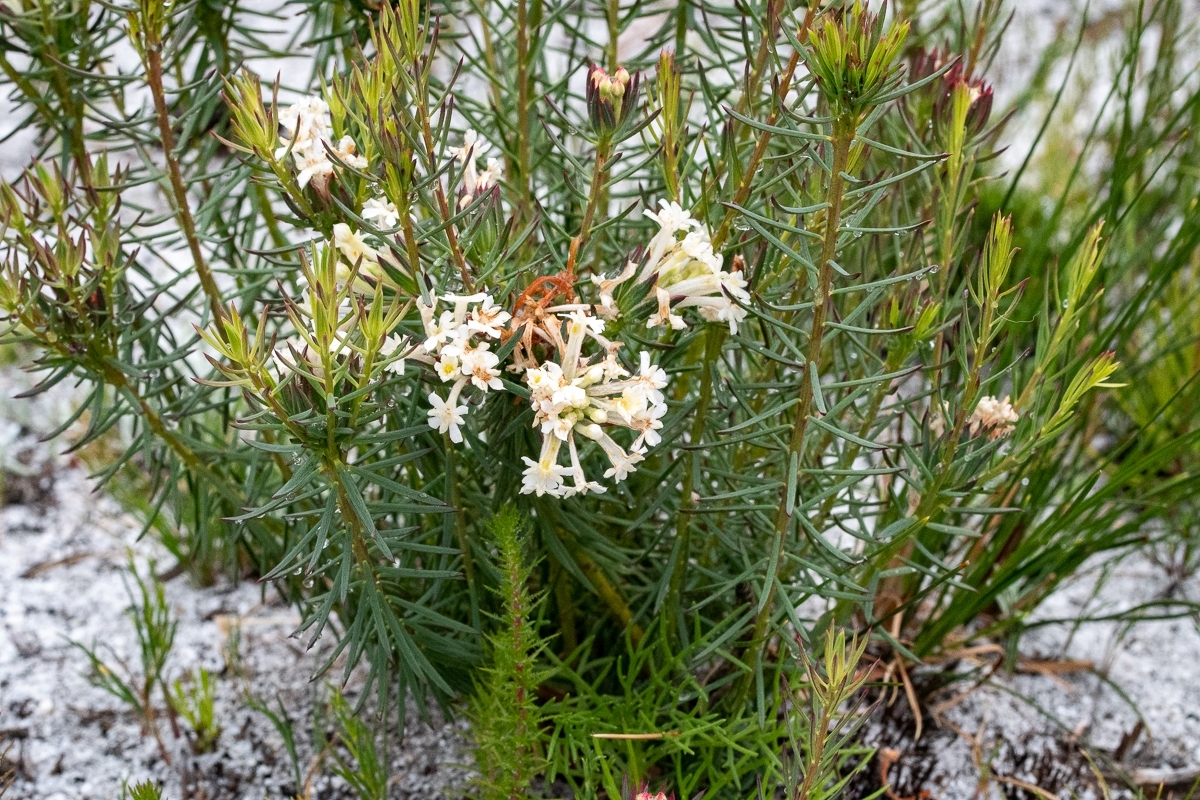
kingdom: Plantae
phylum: Tracheophyta
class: Magnoliopsida
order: Malvales
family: Thymelaeaceae
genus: Gnidia
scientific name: Gnidia pinifolia
